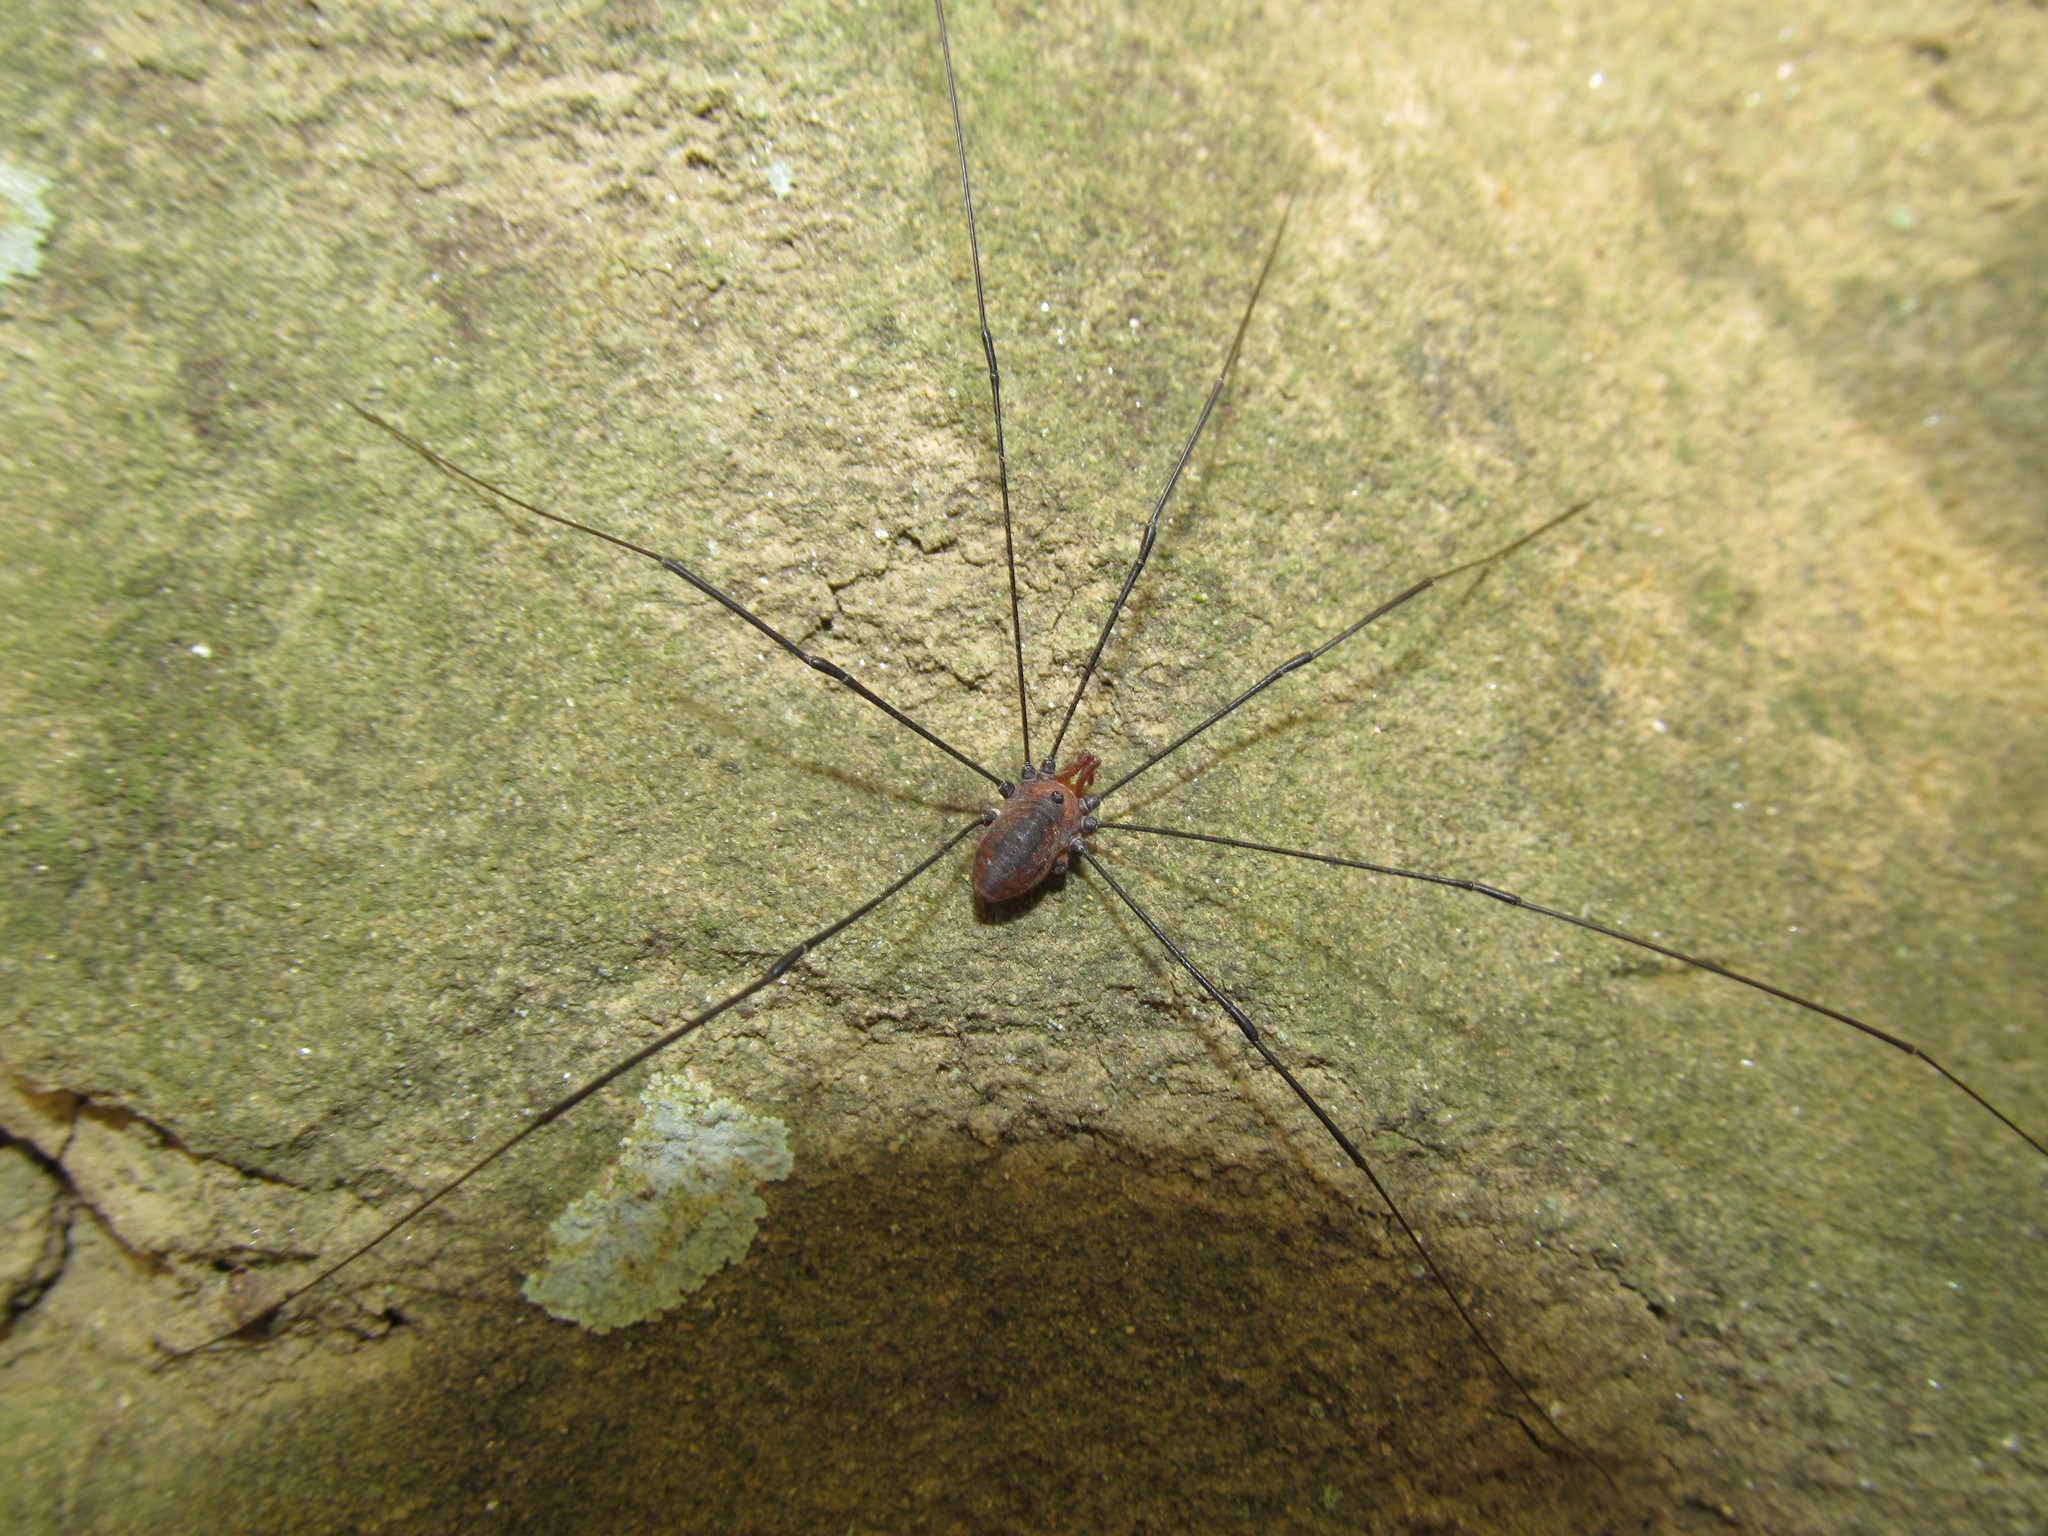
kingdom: Animalia
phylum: Arthropoda
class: Arachnida
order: Opiliones
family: Sclerosomatidae
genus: Leiobunum
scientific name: Leiobunum vittatum
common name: Eastern harvestman
